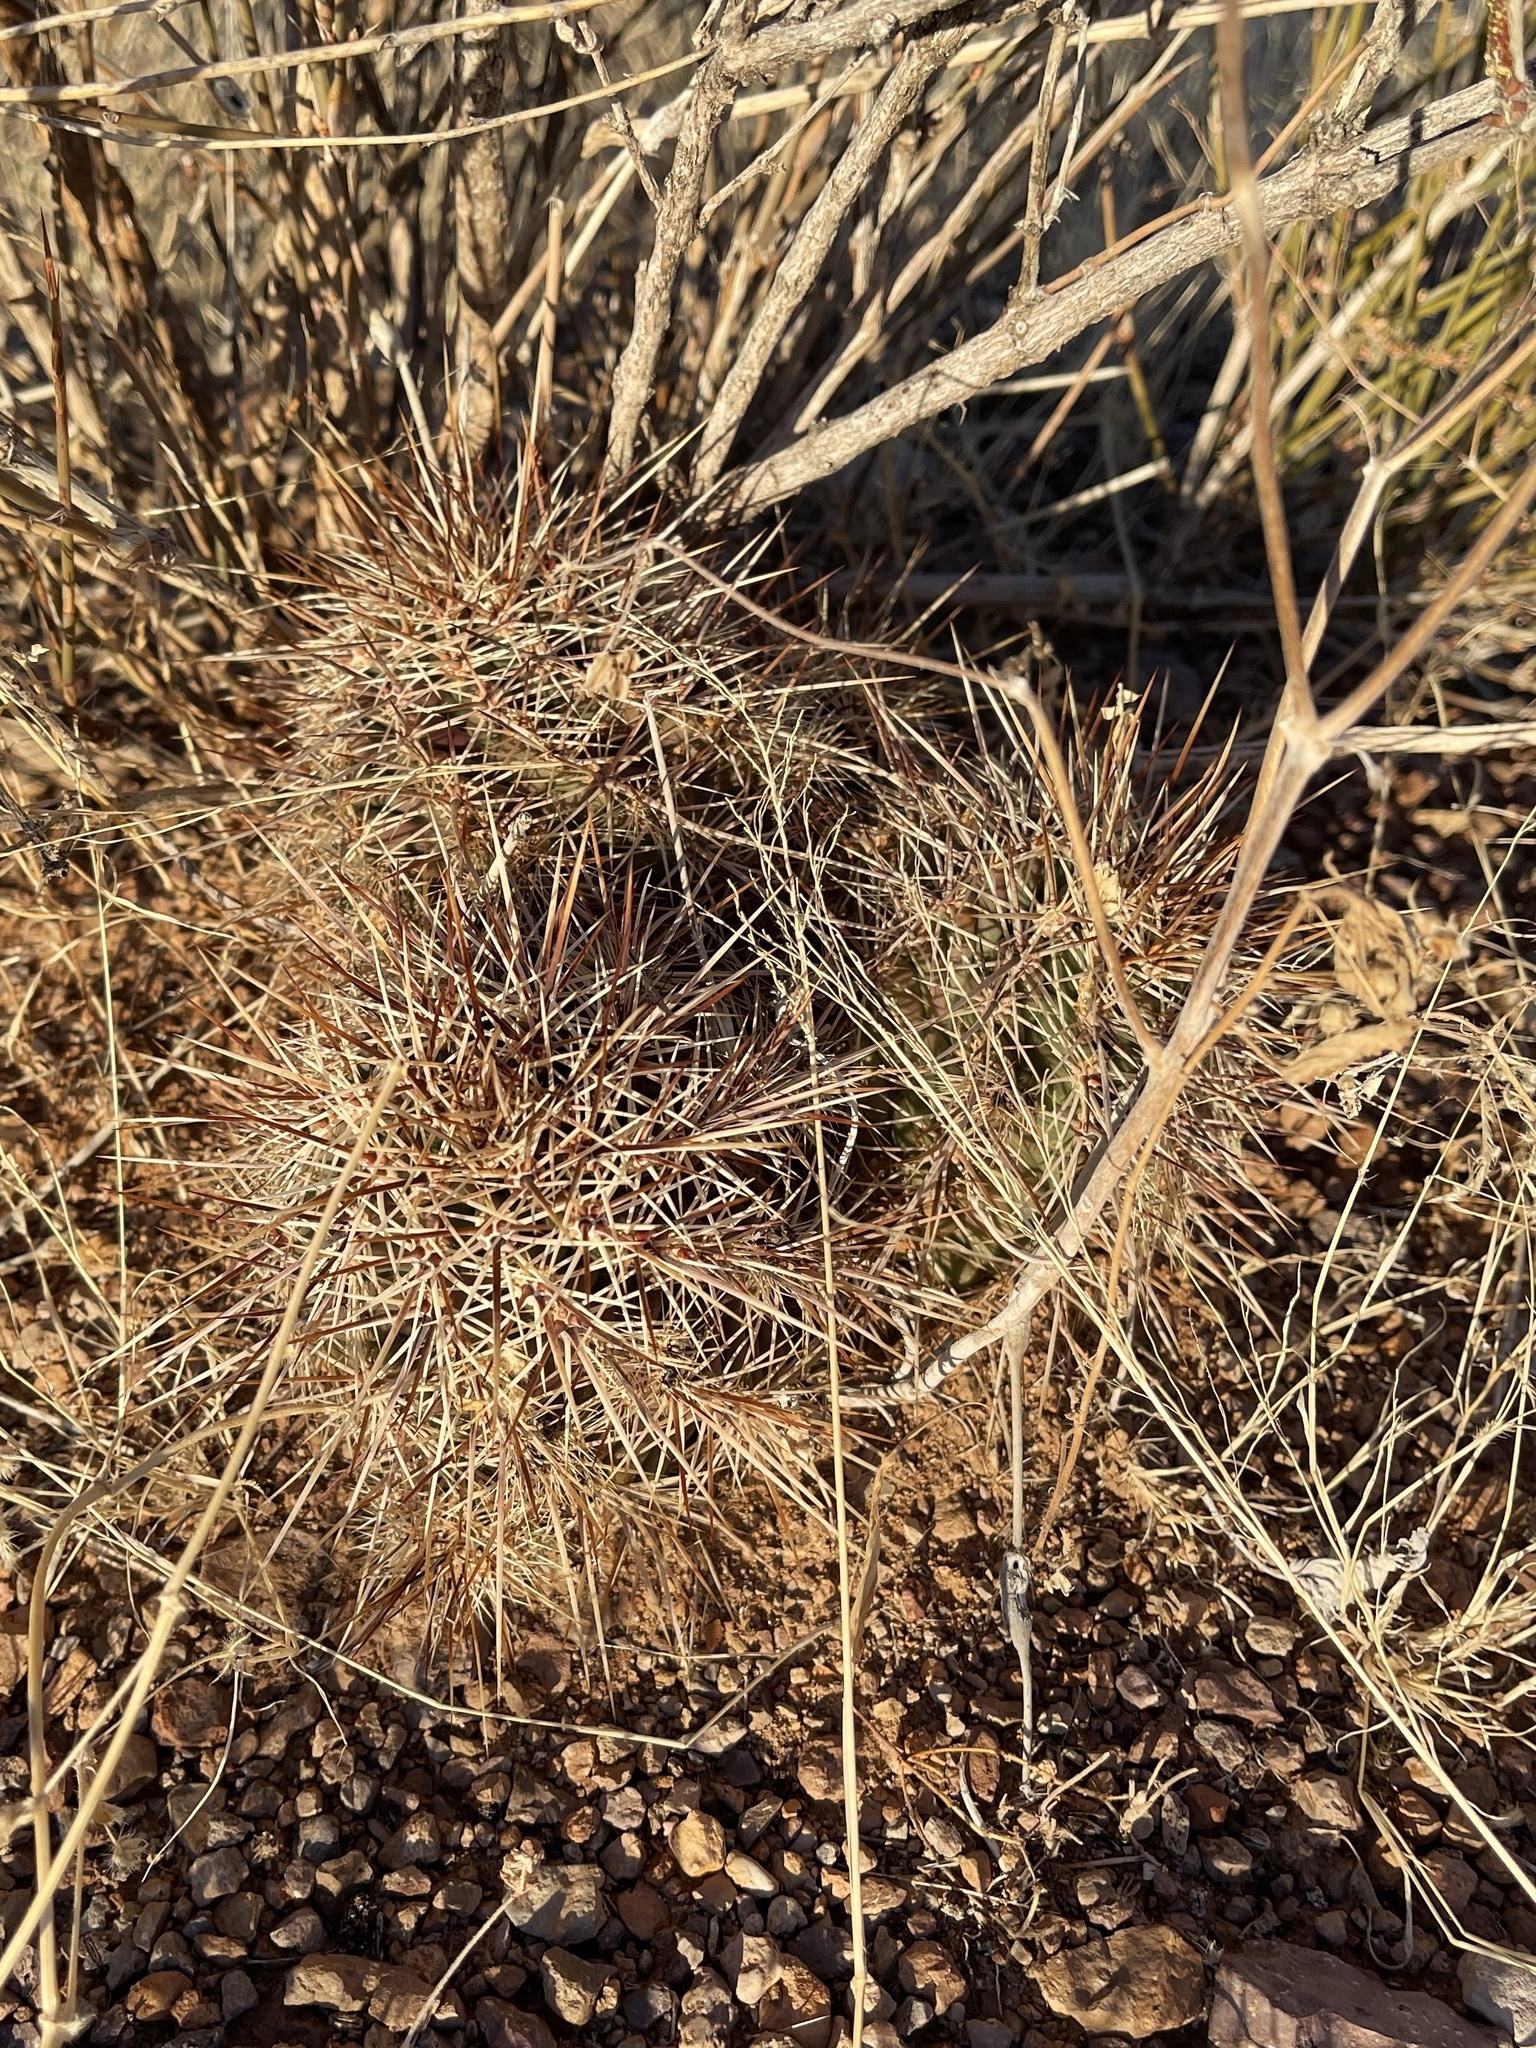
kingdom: Plantae
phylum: Tracheophyta
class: Magnoliopsida
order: Caryophyllales
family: Cactaceae
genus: Echinocereus
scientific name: Echinocereus coccineus
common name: Scarlet hedgehog cactus
